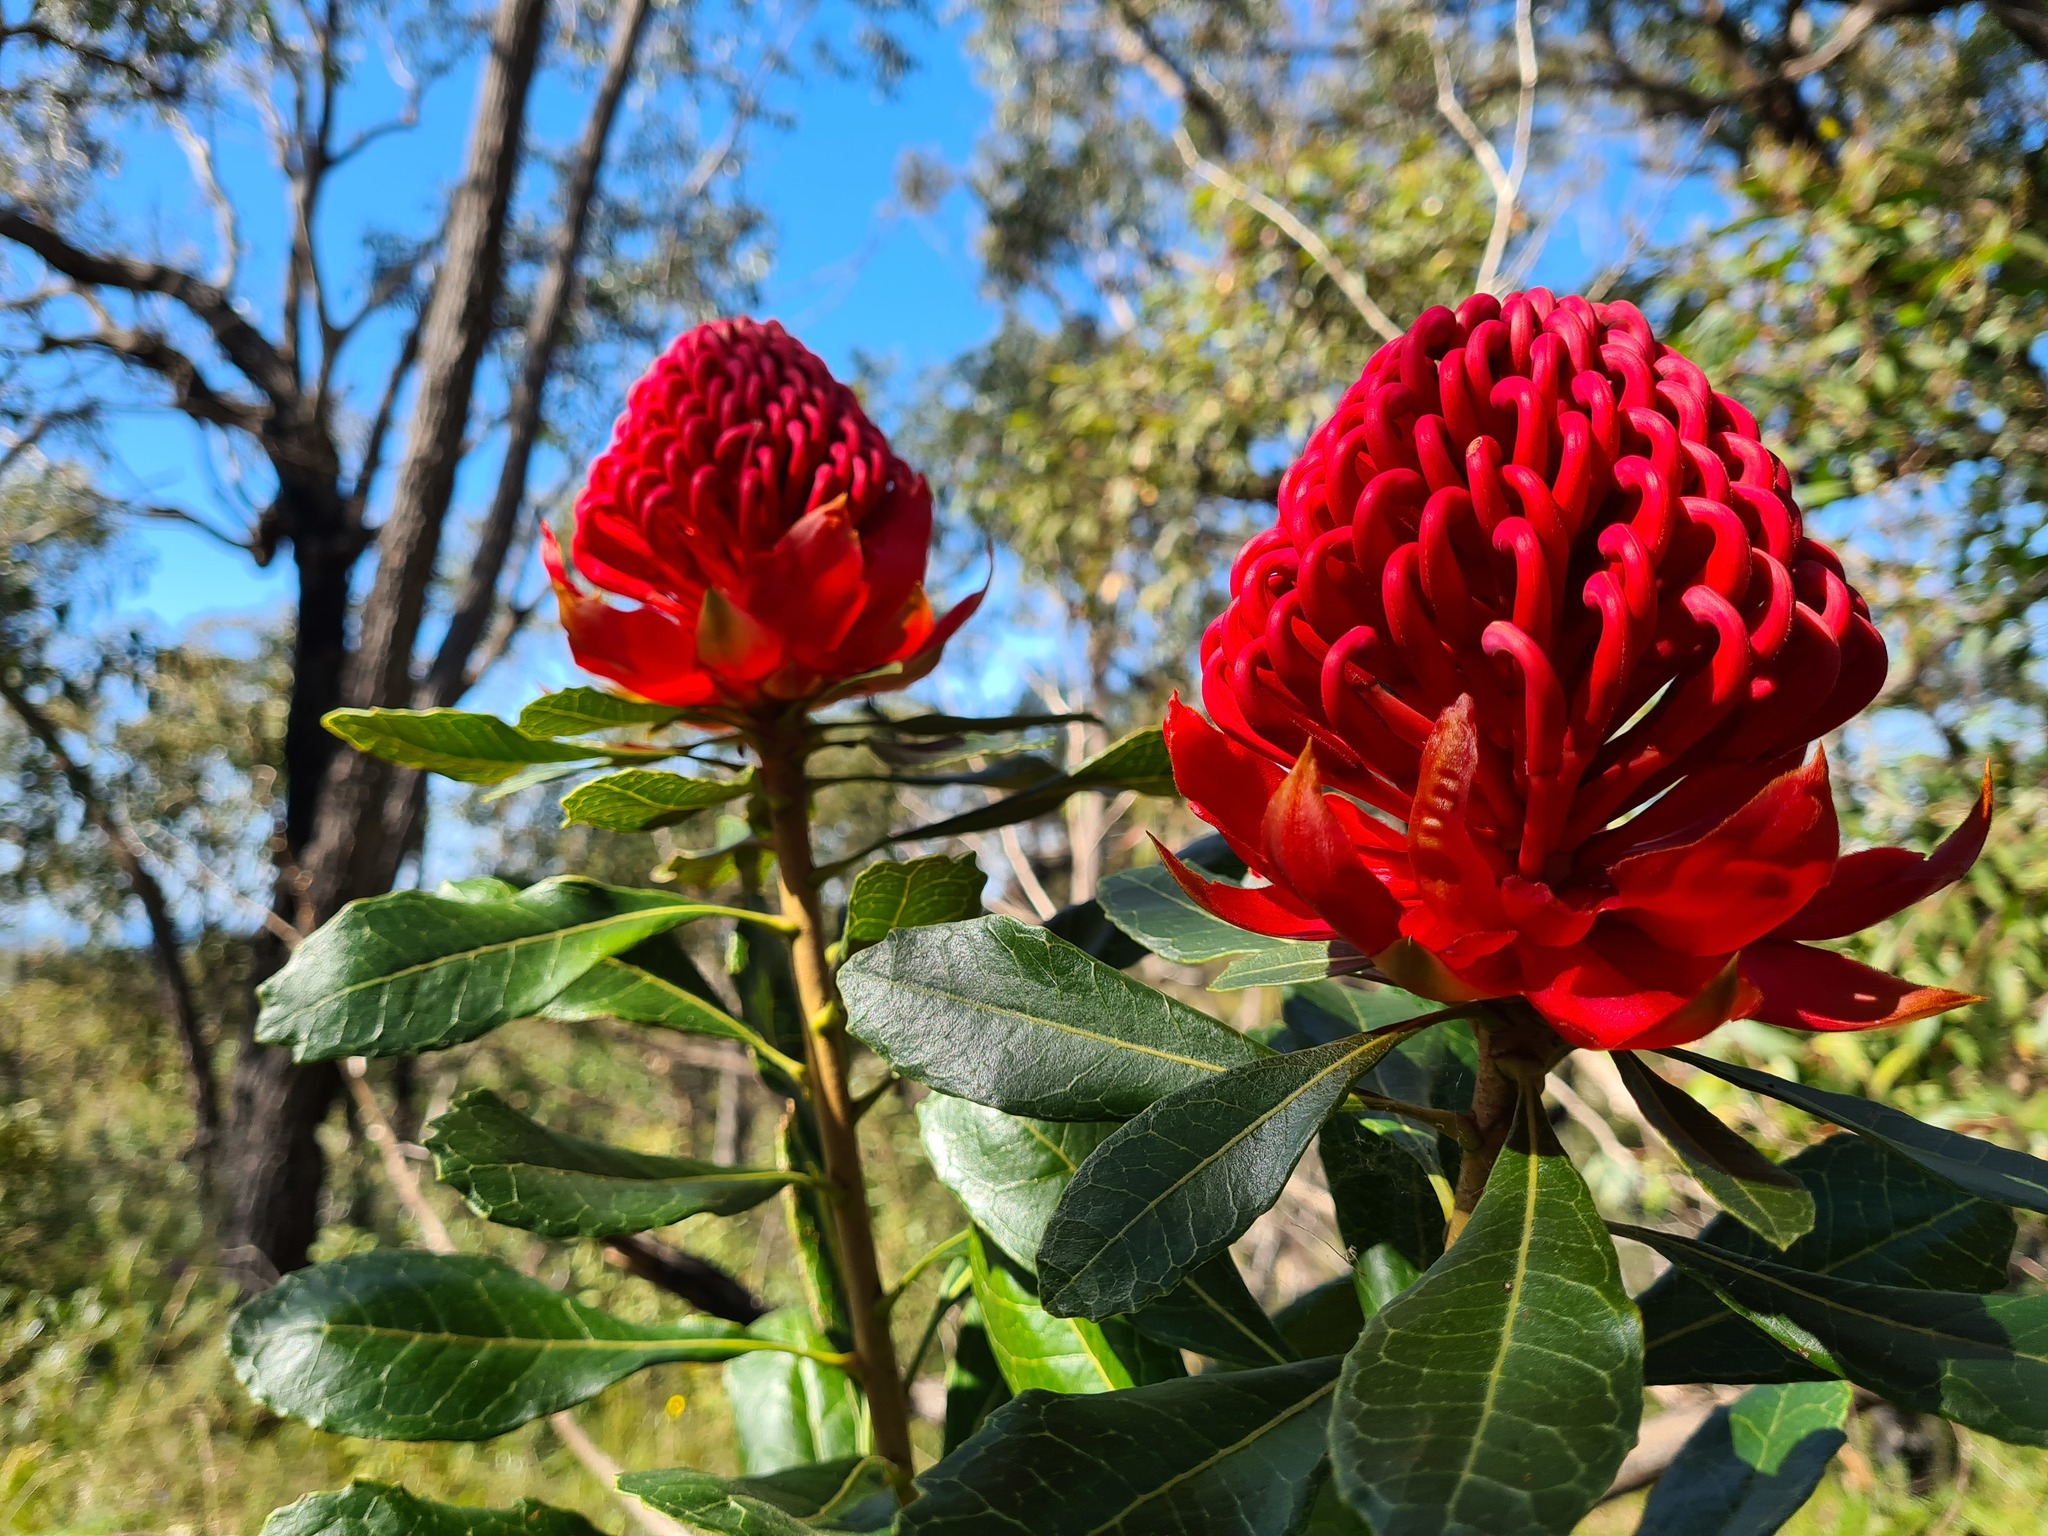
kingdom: Plantae
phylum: Tracheophyta
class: Magnoliopsida
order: Proteales
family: Proteaceae
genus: Telopea
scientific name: Telopea speciosissima
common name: New south wales waratah
